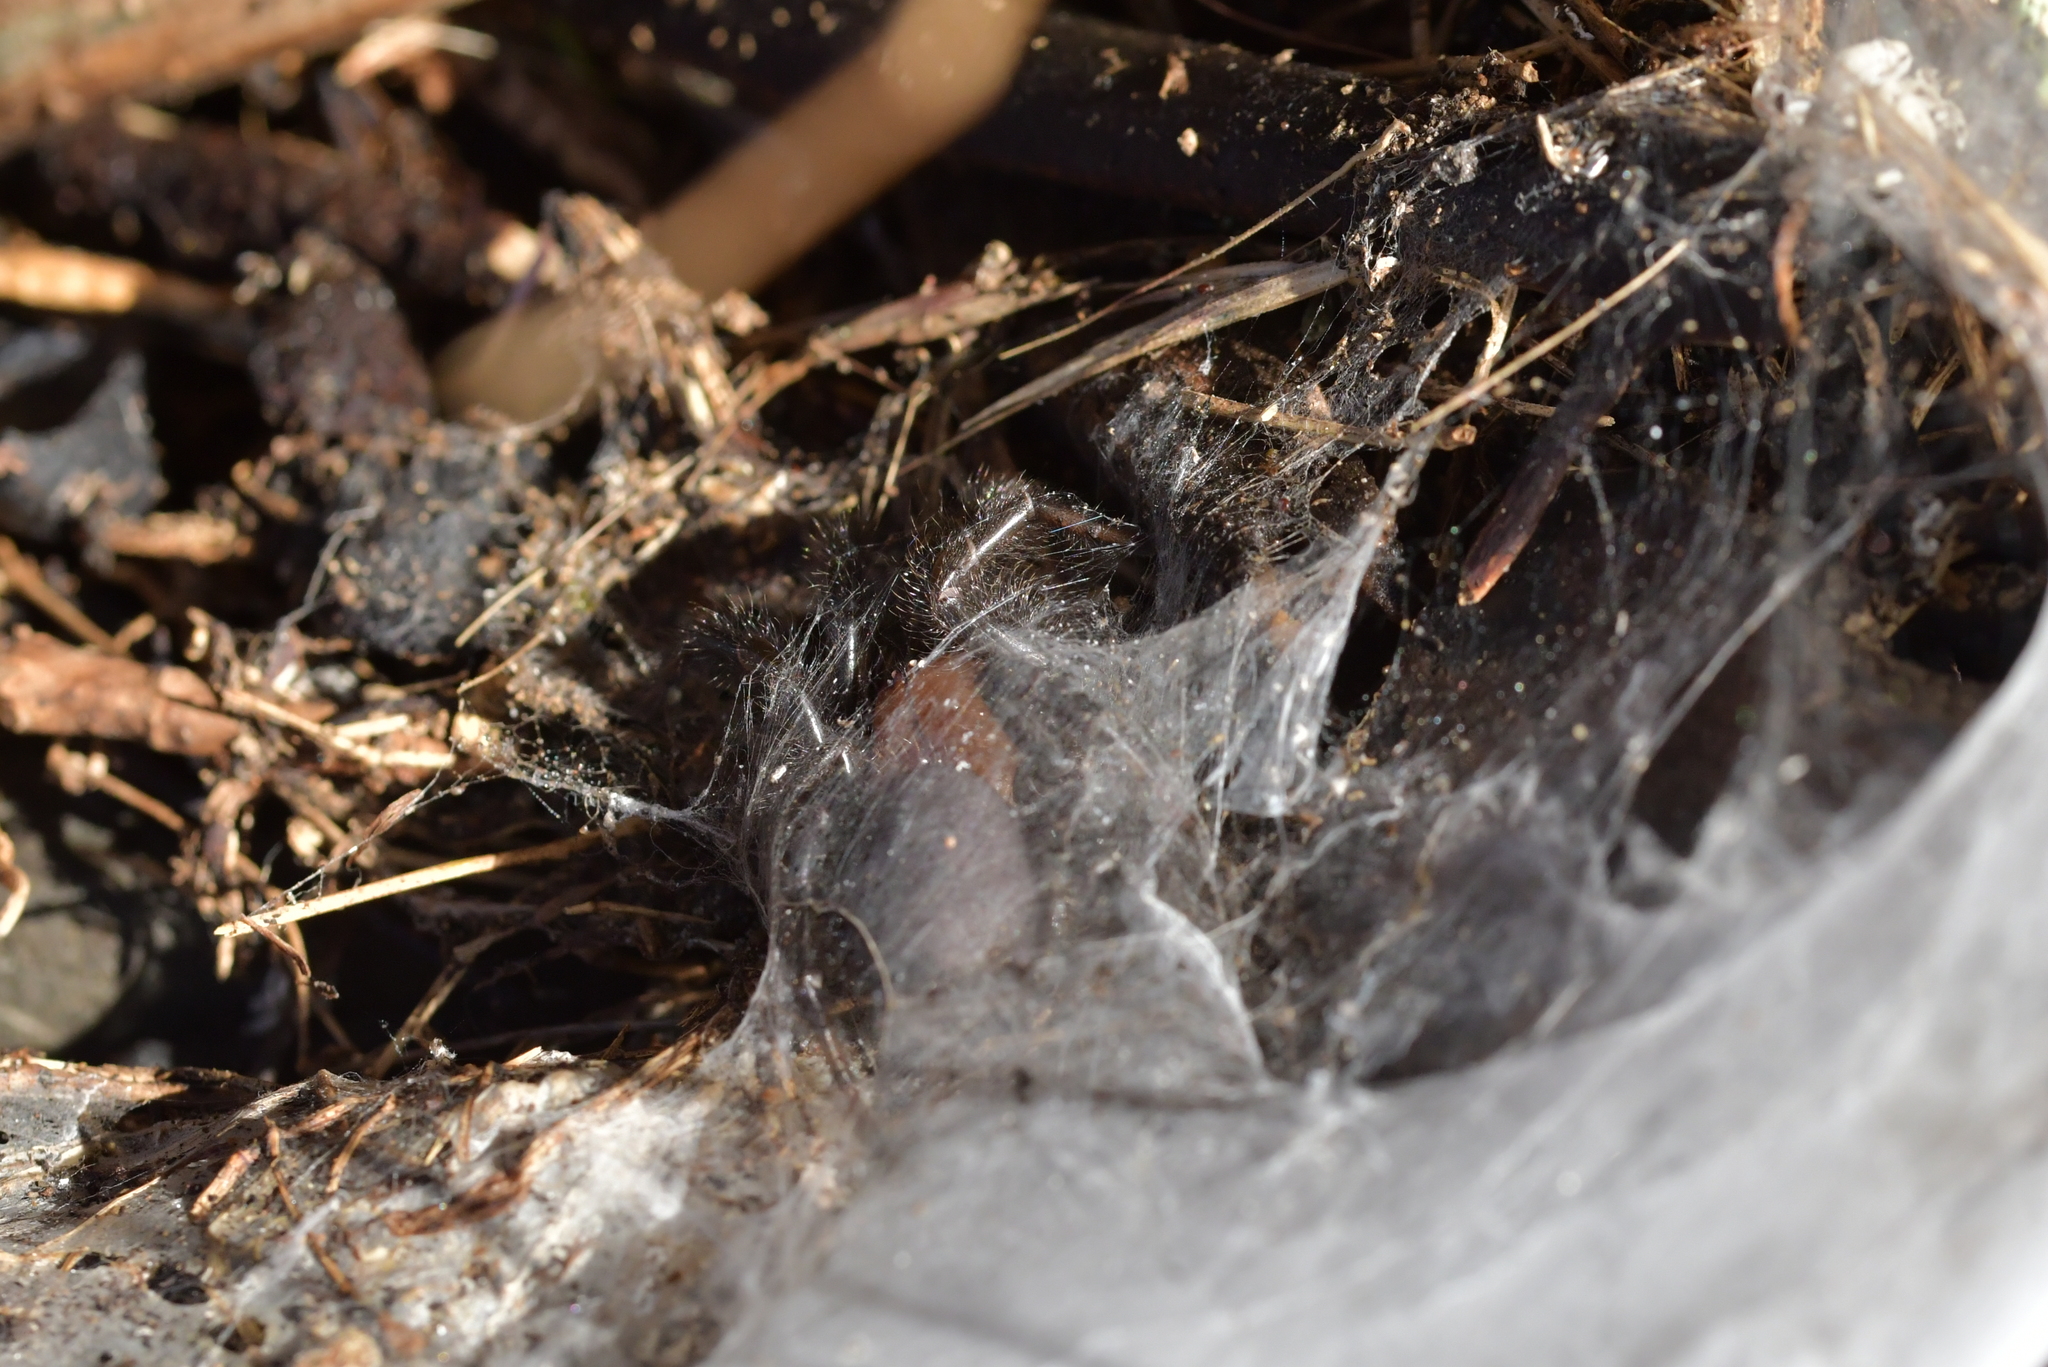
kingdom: Animalia
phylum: Arthropoda
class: Arachnida
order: Araneae
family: Porrhothelidae
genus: Porrhothele
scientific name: Porrhothele antipodiana
